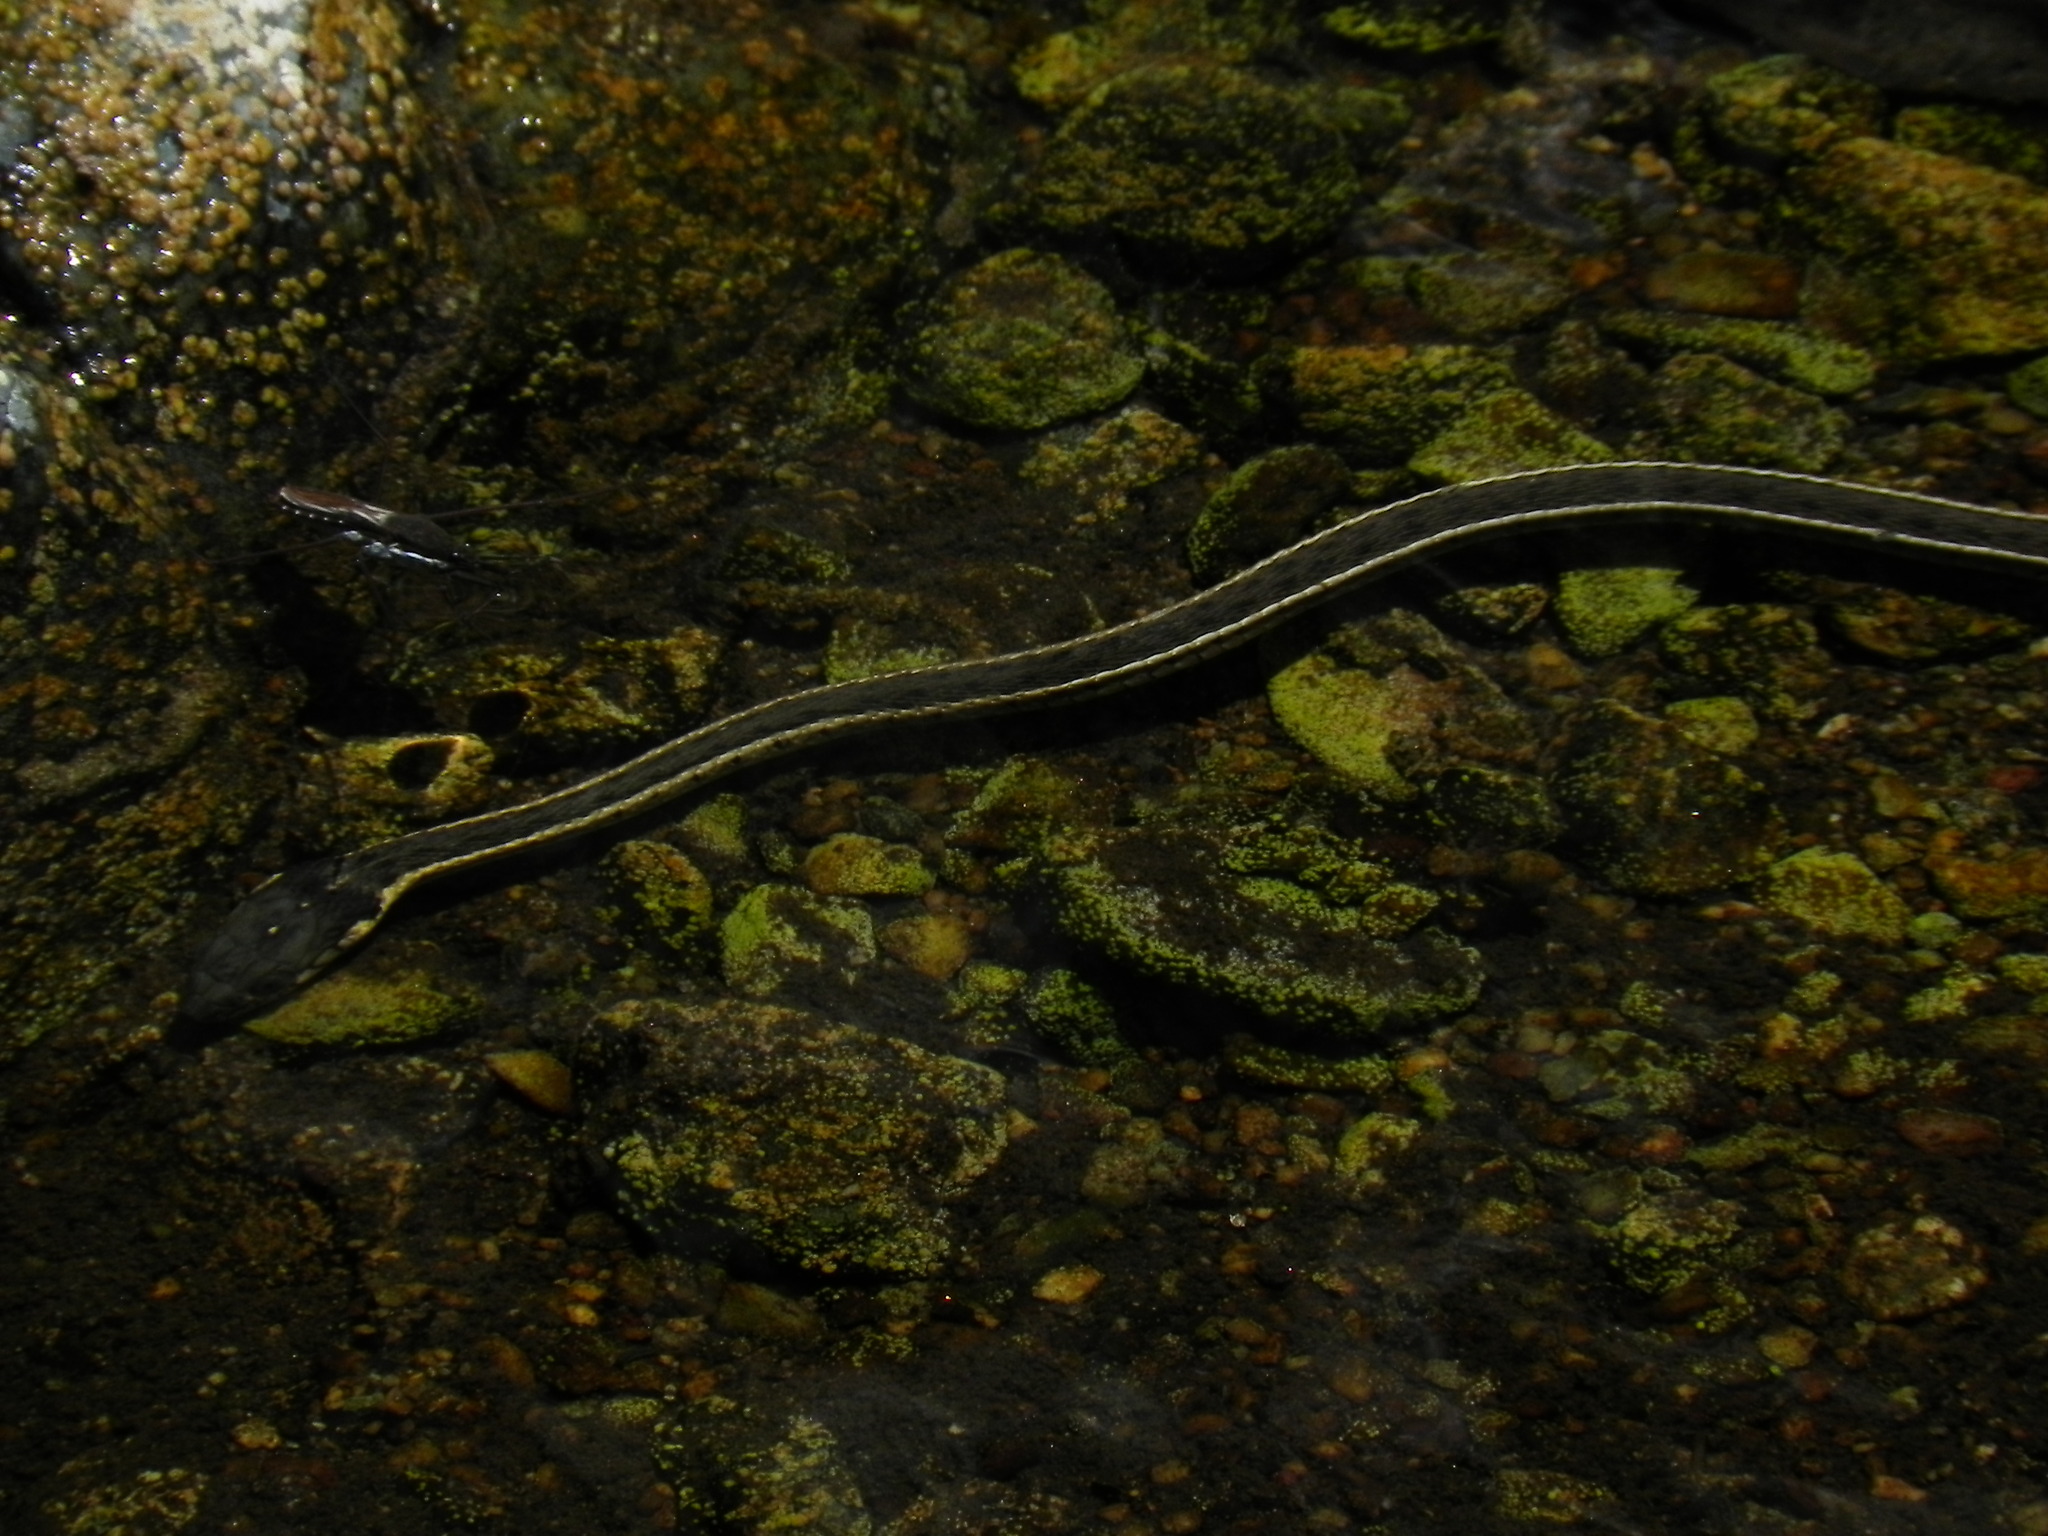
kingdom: Animalia
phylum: Chordata
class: Squamata
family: Colubridae
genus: Thamnophis
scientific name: Thamnophis hammondii
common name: Two-striped garter snake
